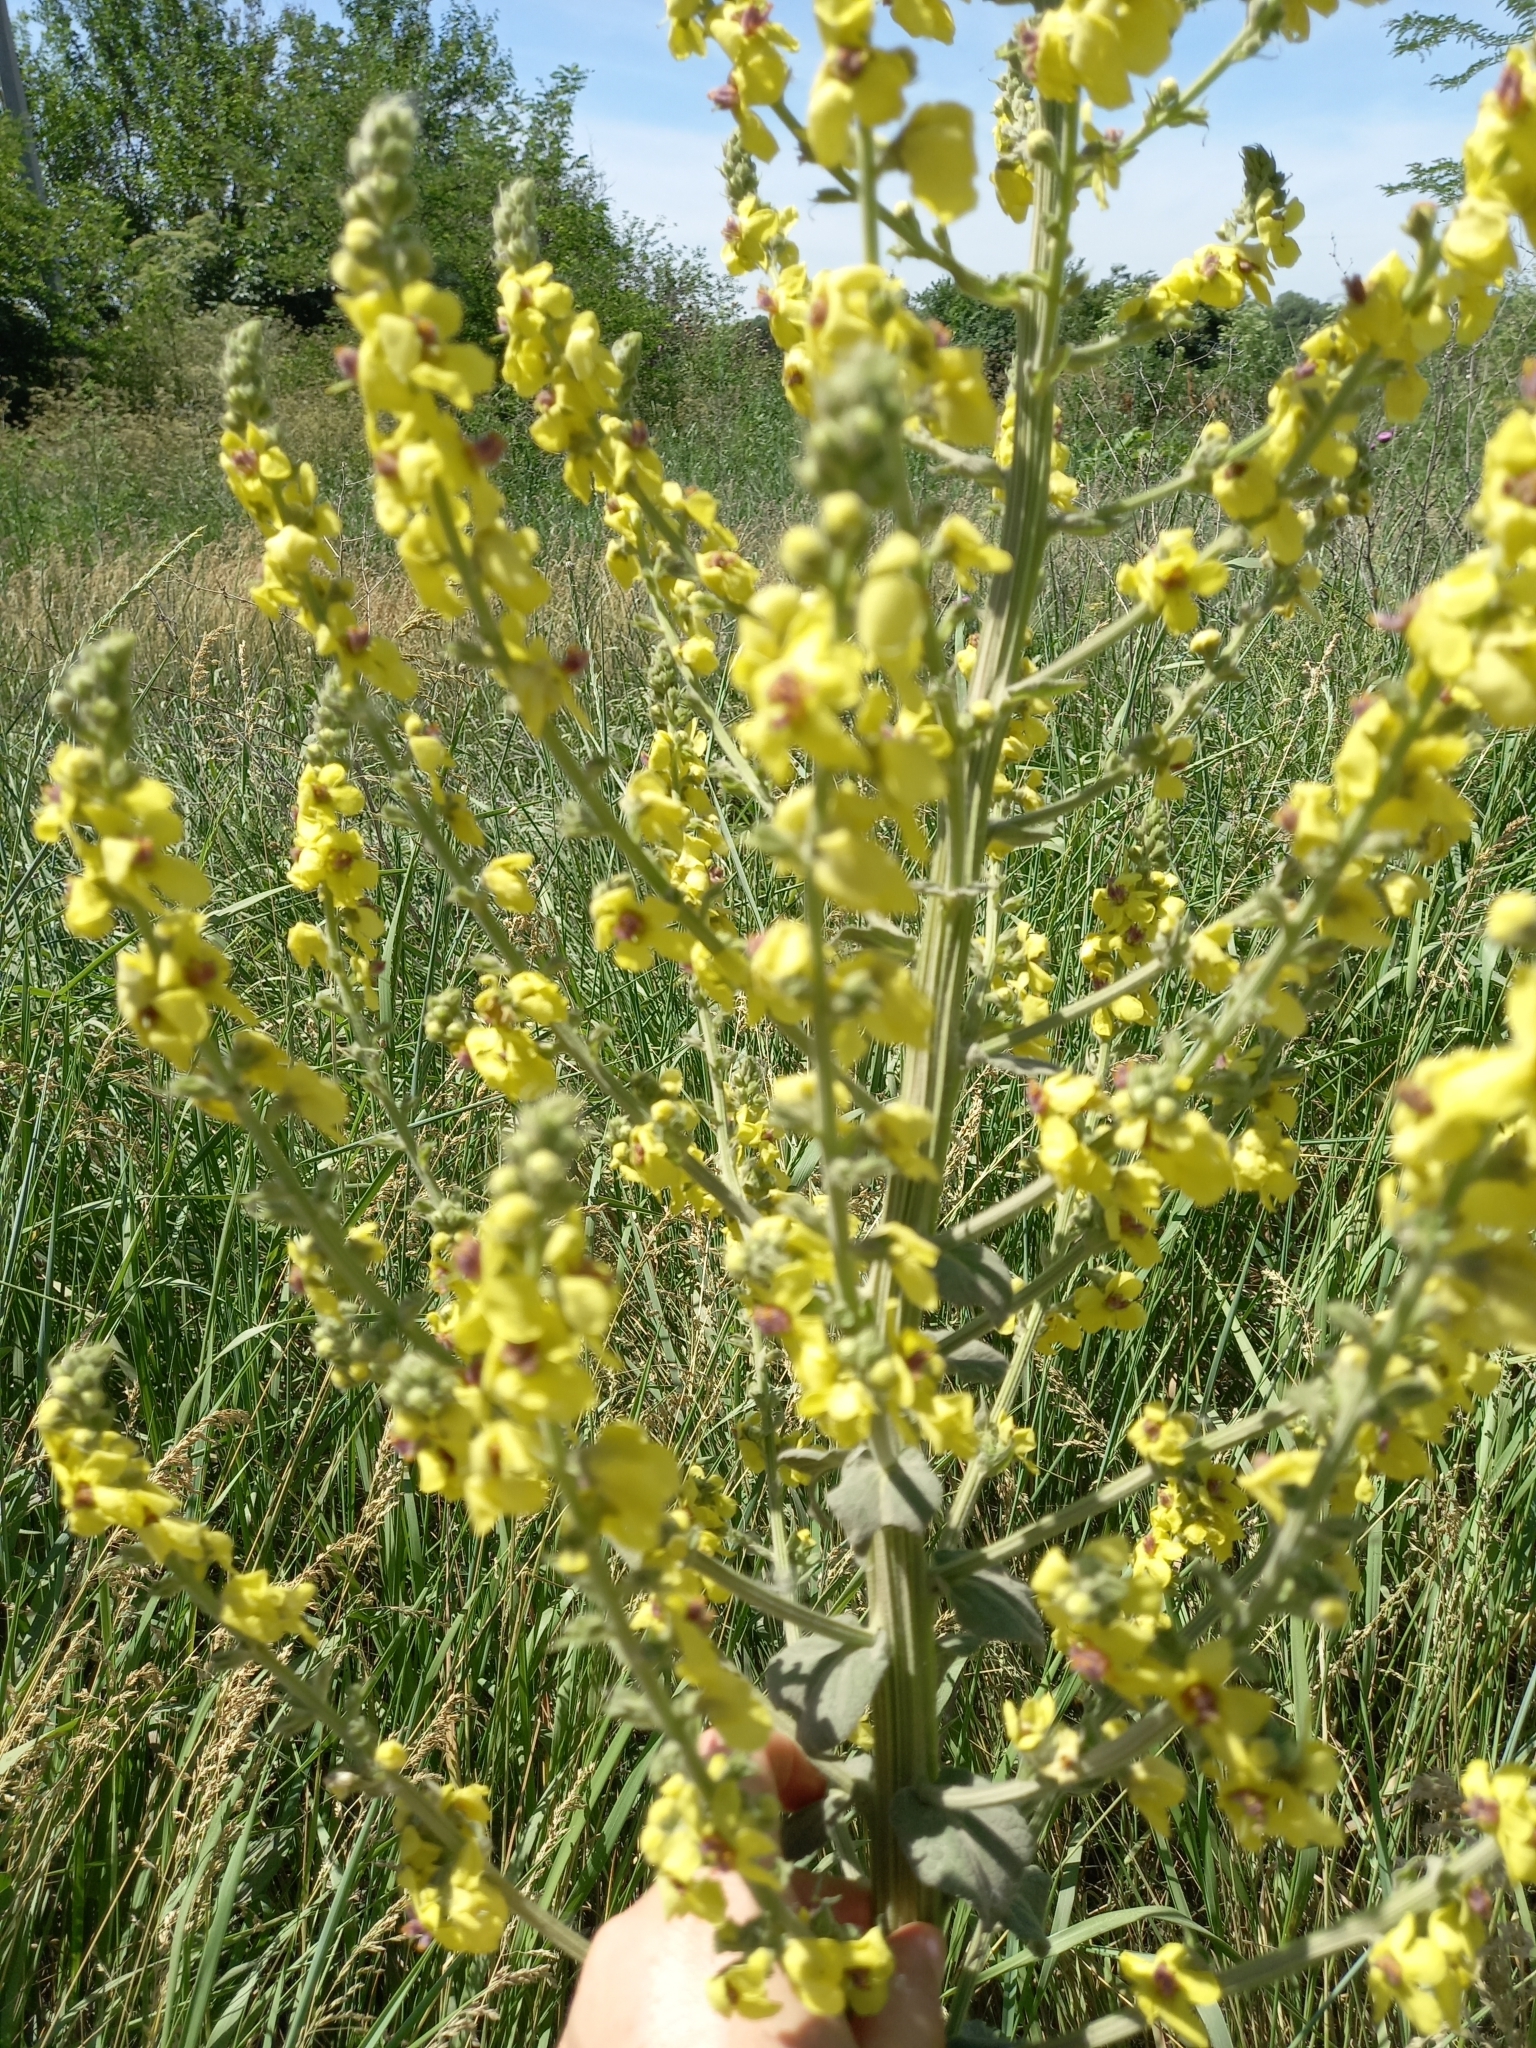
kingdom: Plantae
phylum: Tracheophyta
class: Magnoliopsida
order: Lamiales
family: Scrophulariaceae
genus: Verbascum
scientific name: Verbascum pyramidatum
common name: Caucasian mullein
